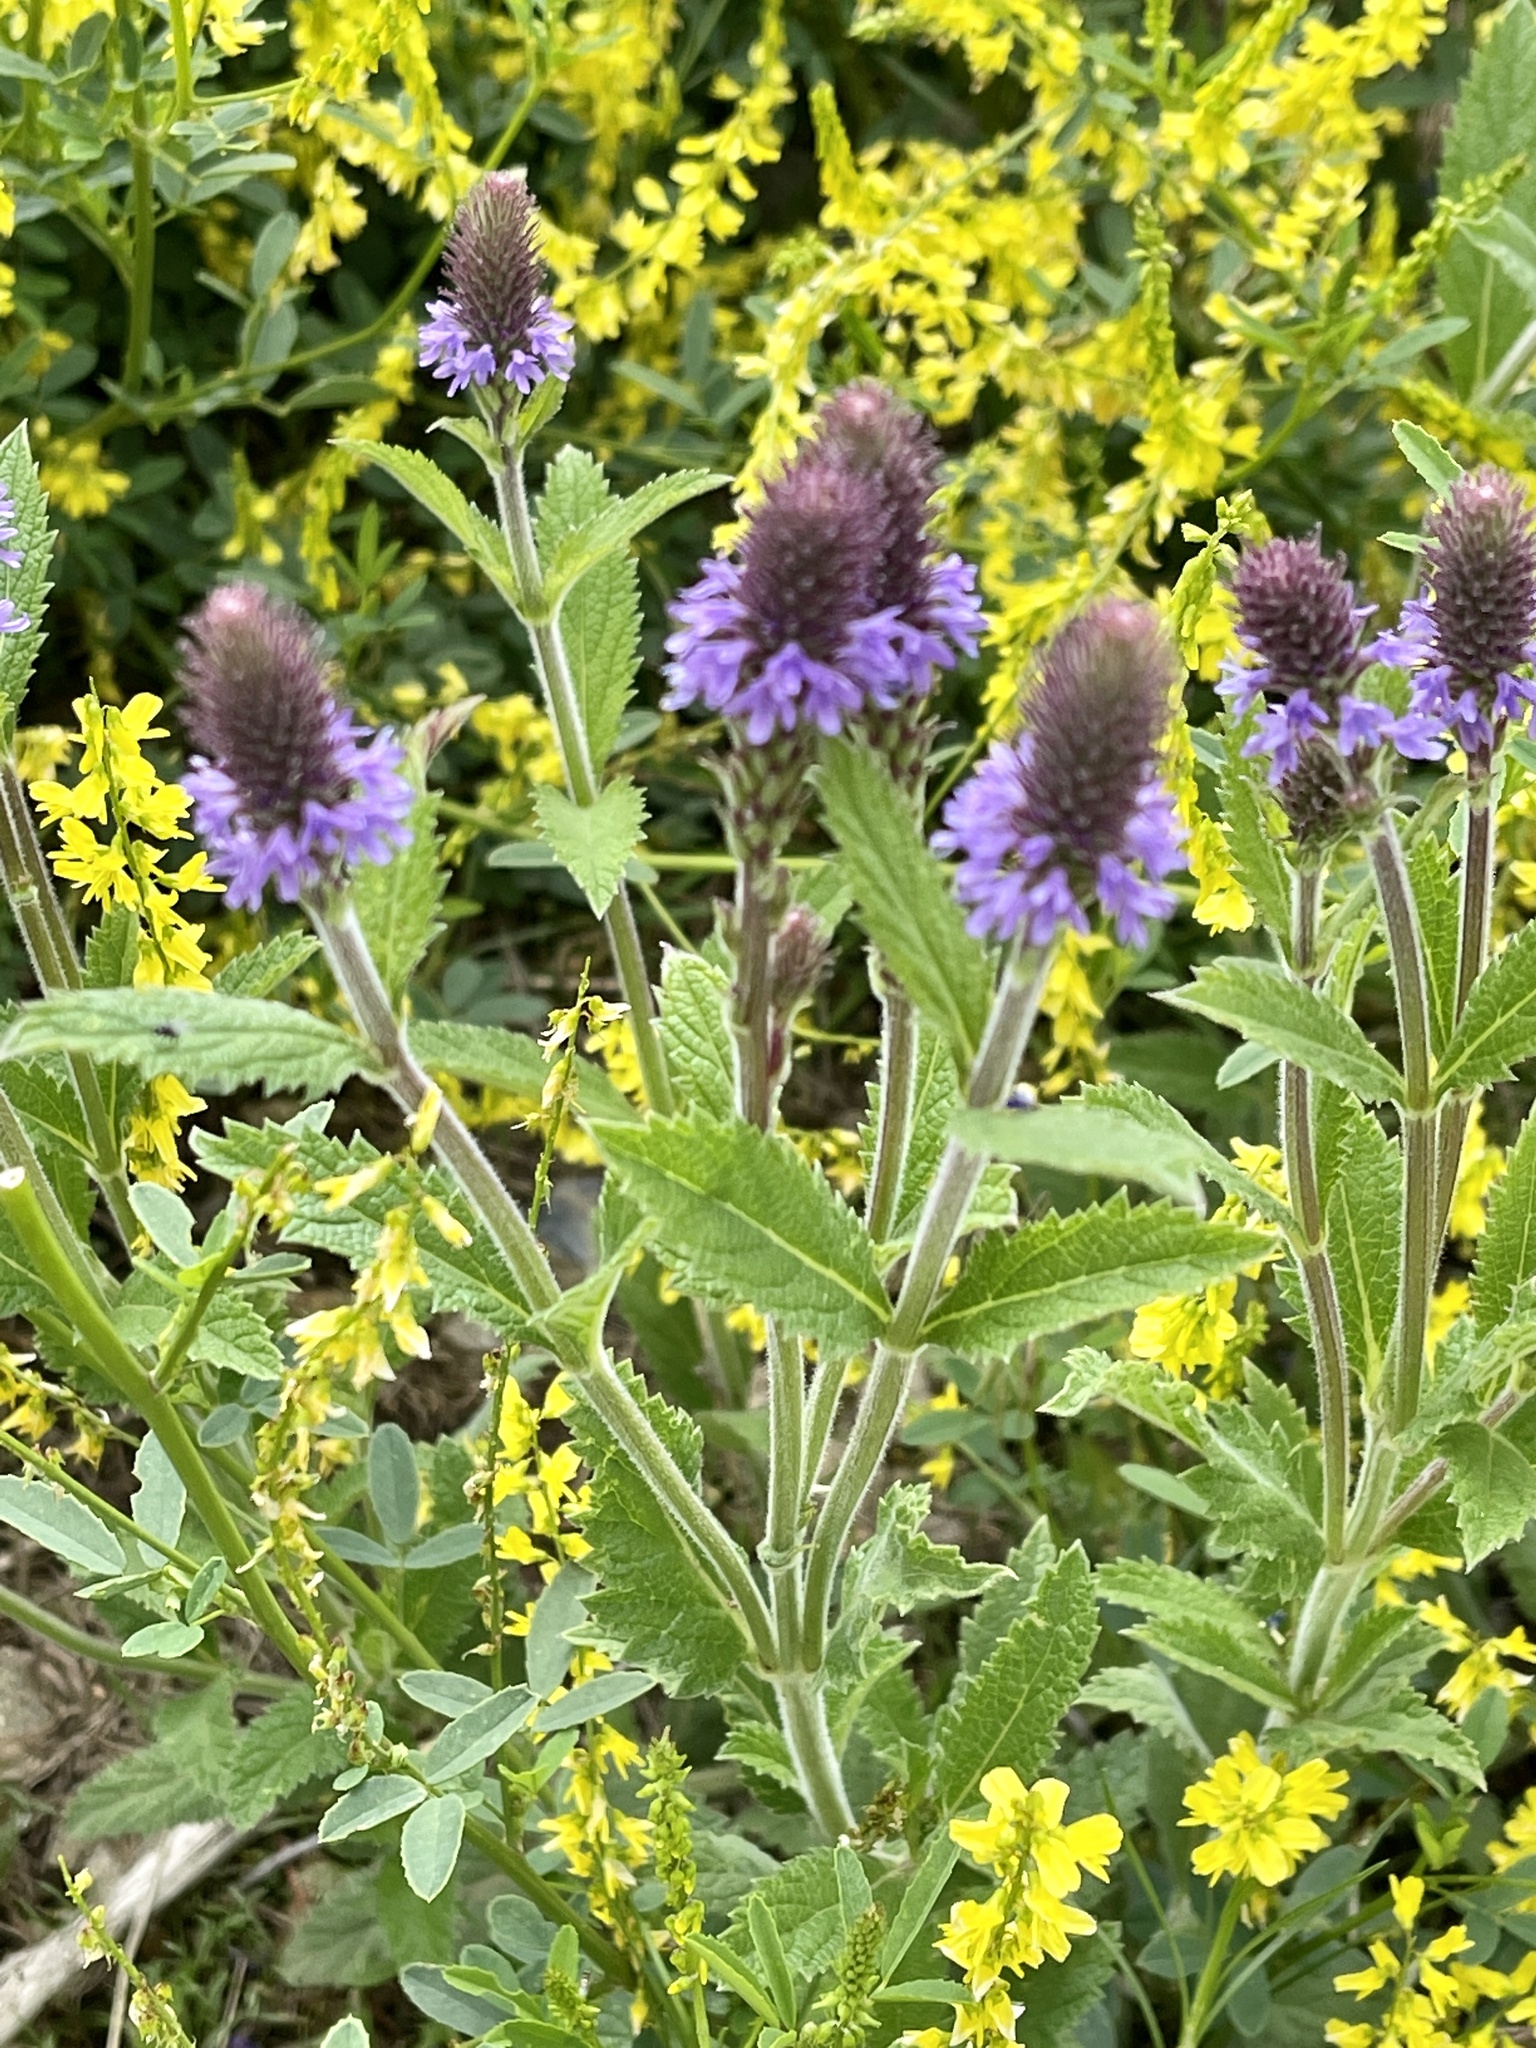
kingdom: Plantae
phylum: Tracheophyta
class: Magnoliopsida
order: Lamiales
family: Verbenaceae
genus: Verbena
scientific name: Verbena macdougalii
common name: New mexico vervain
